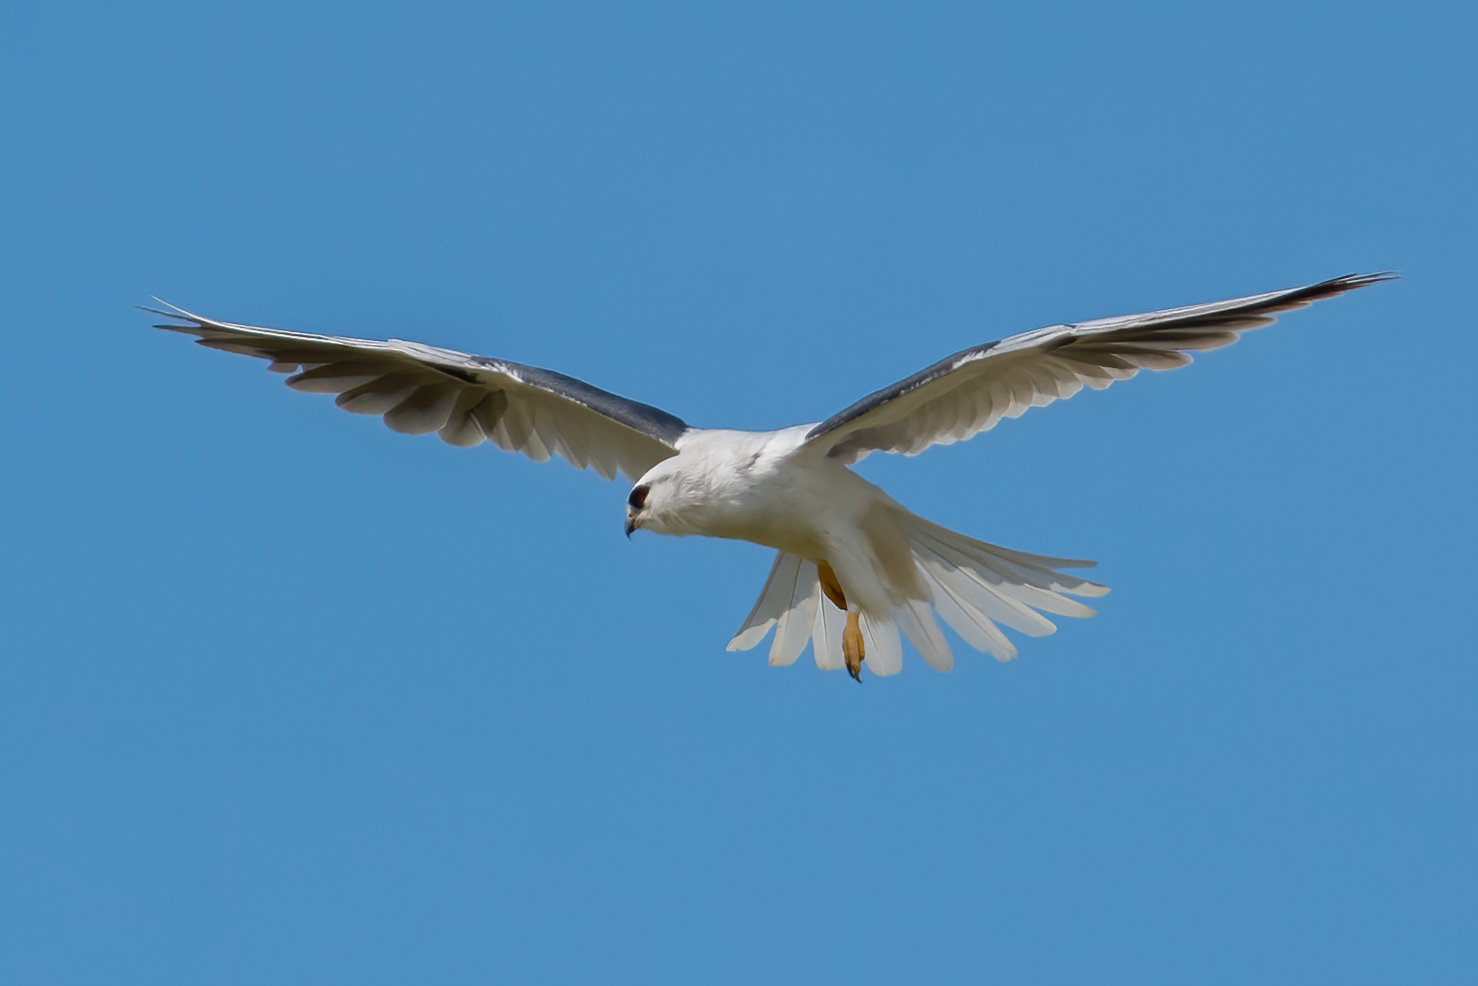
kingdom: Animalia
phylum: Chordata
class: Aves
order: Accipitriformes
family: Accipitridae
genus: Elanus
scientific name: Elanus leucurus
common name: White-tailed kite
